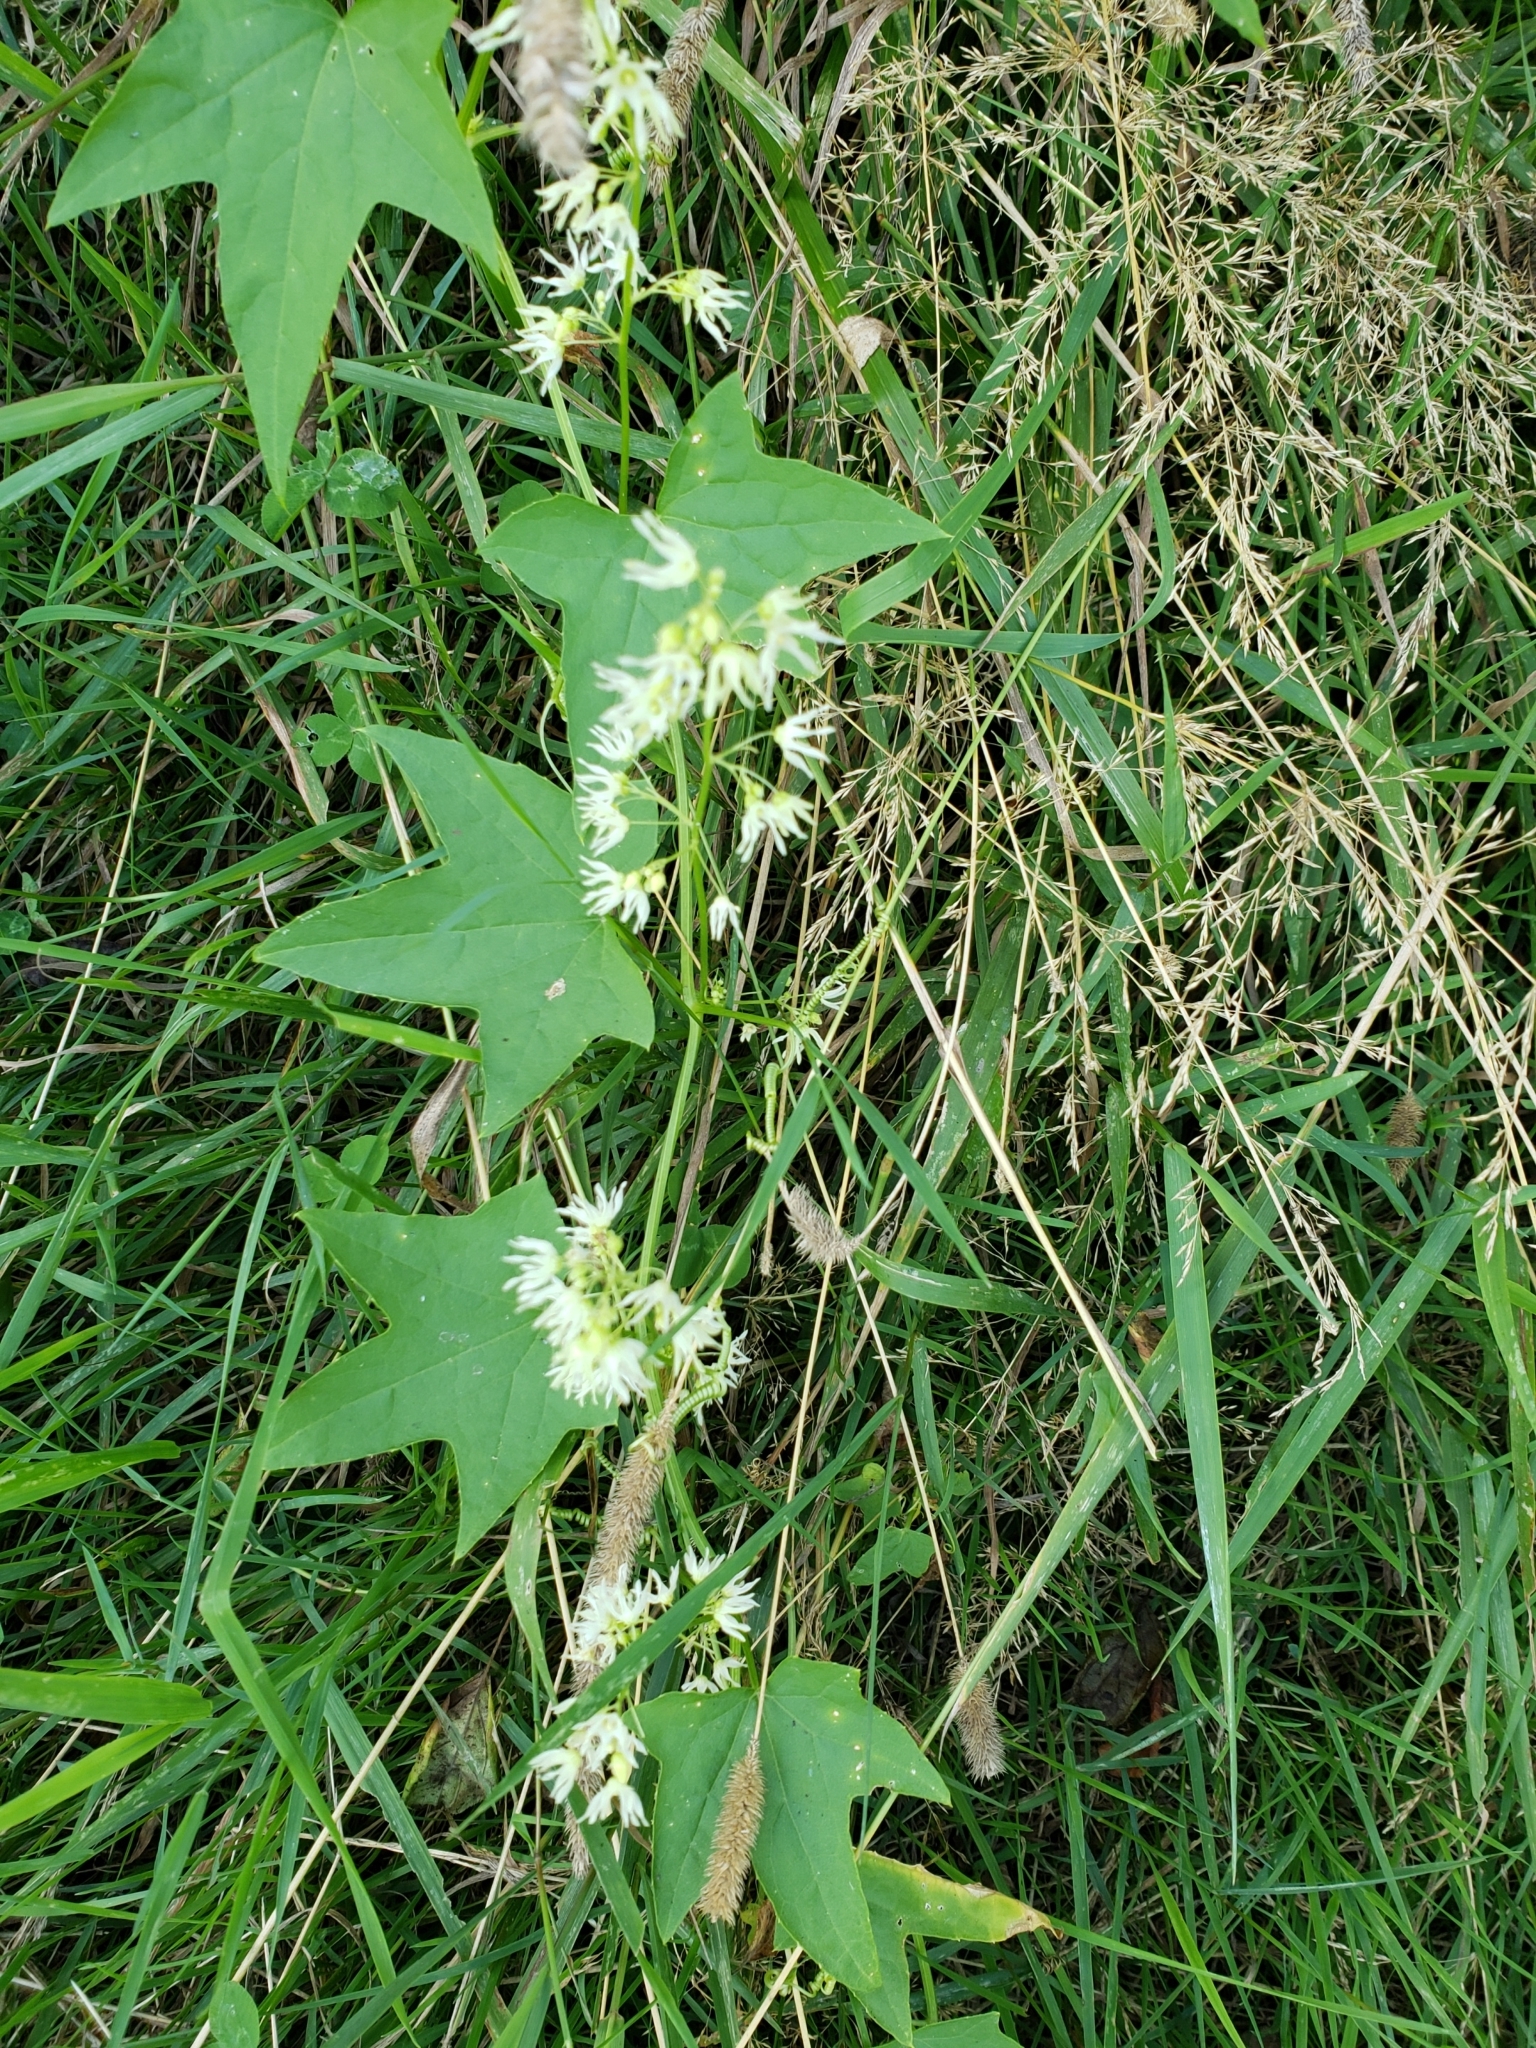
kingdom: Plantae
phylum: Tracheophyta
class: Magnoliopsida
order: Cucurbitales
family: Cucurbitaceae
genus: Echinocystis
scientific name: Echinocystis lobata
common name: Wild cucumber
